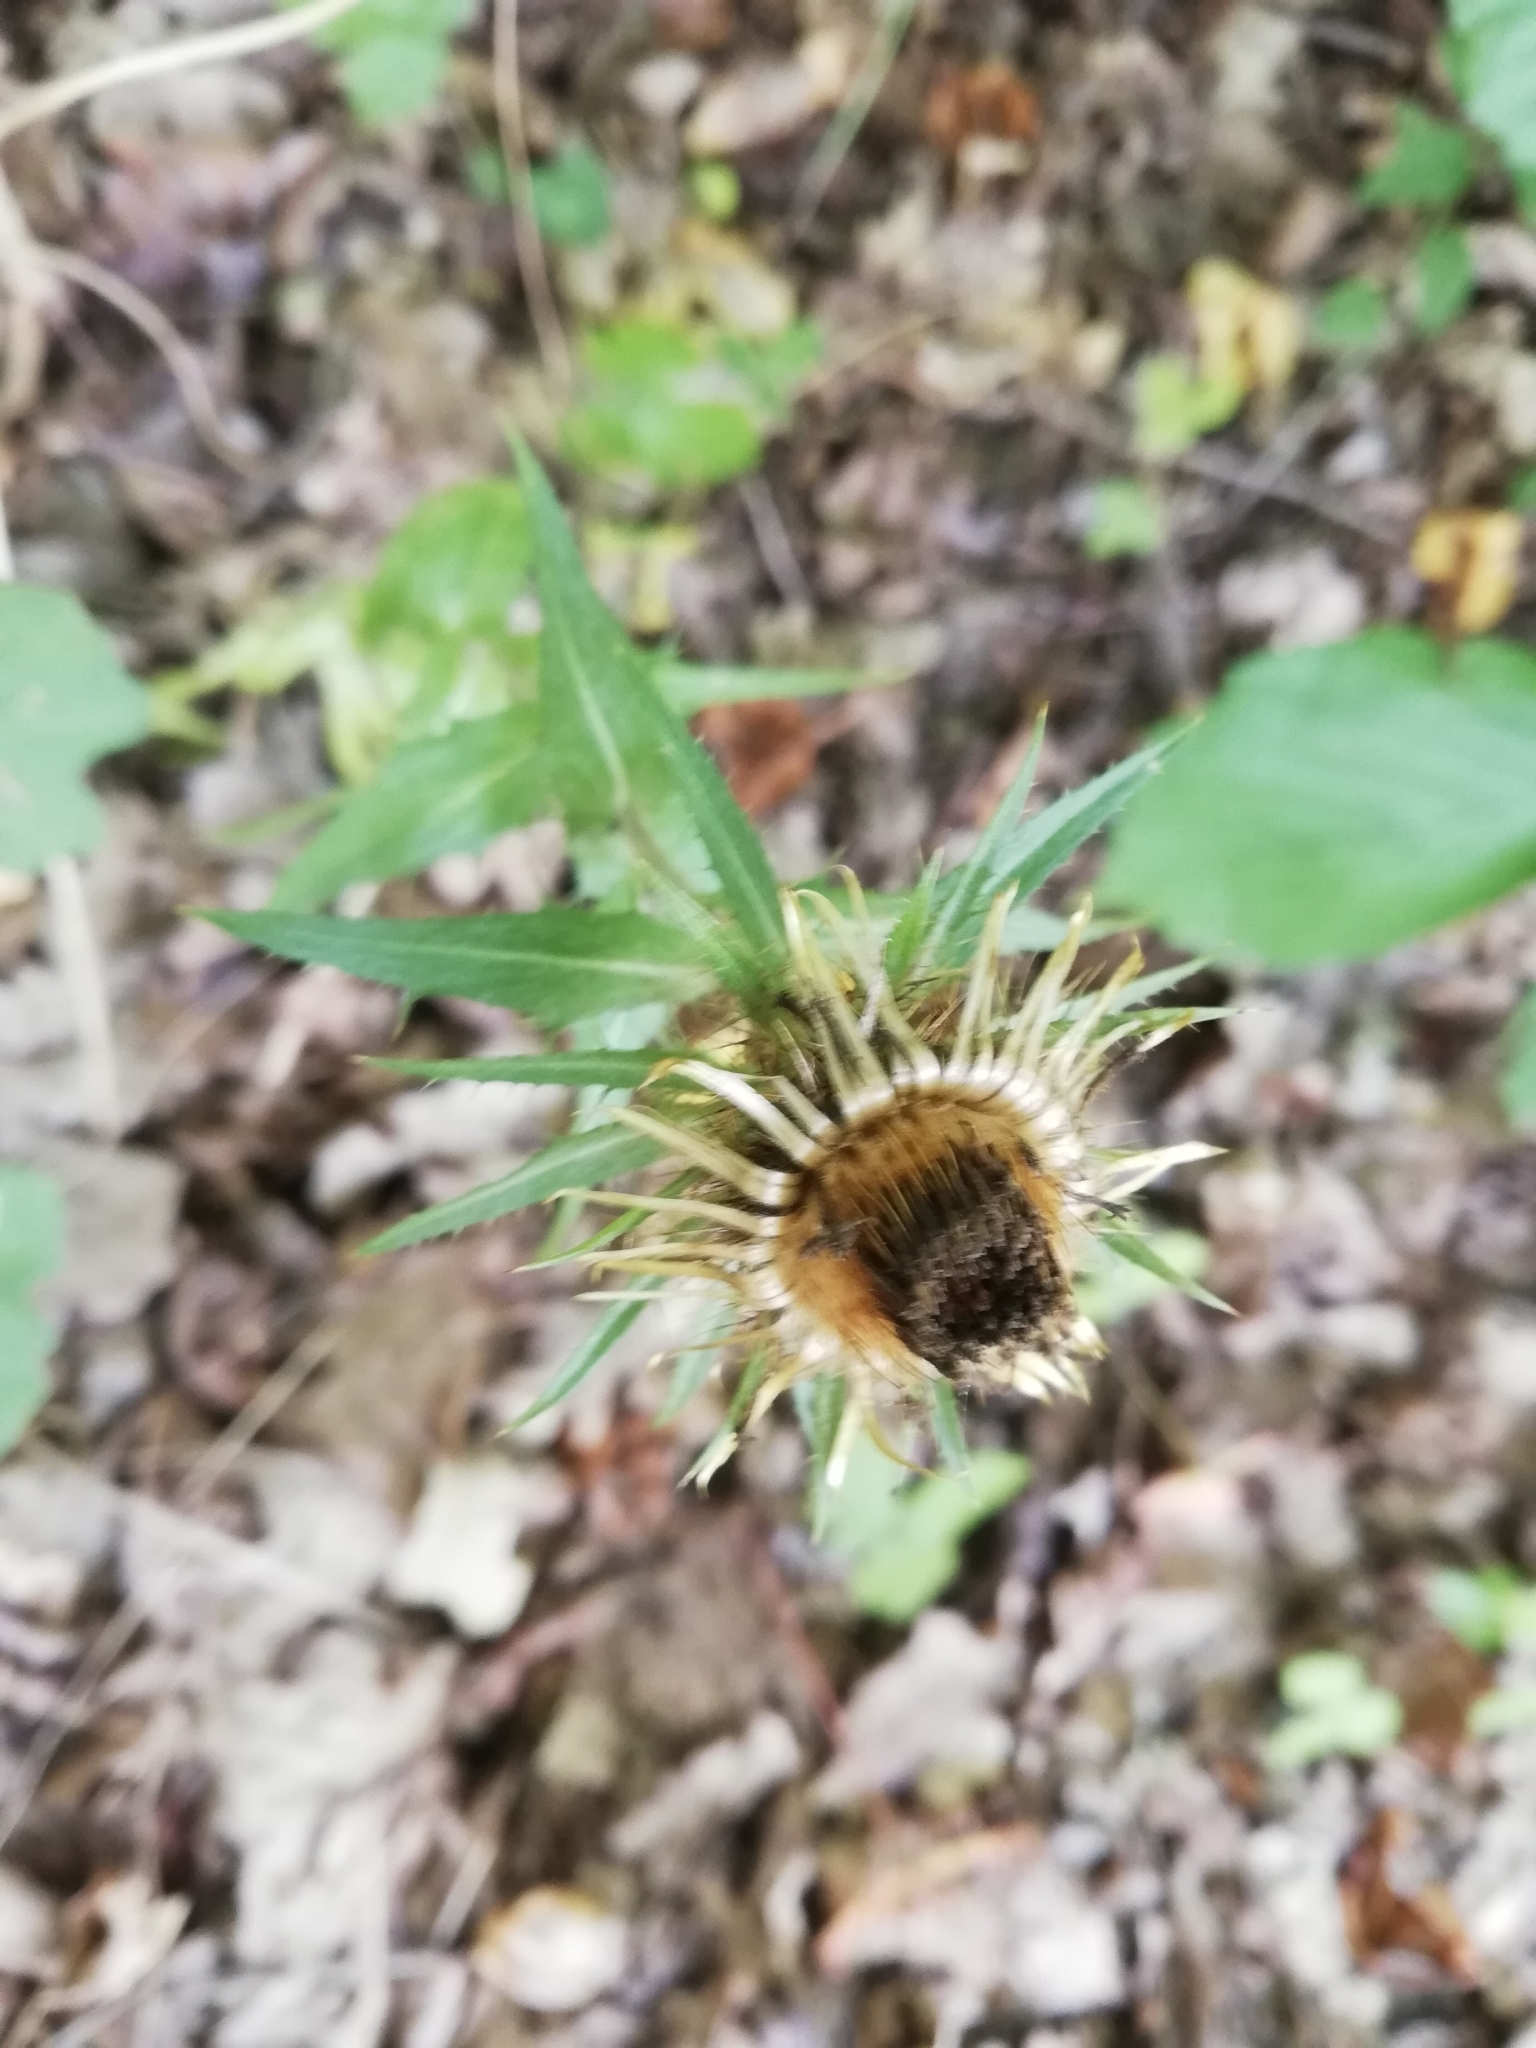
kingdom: Plantae
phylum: Tracheophyta
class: Magnoliopsida
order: Asterales
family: Asteraceae
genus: Carlina
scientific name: Carlina biebersteinii
